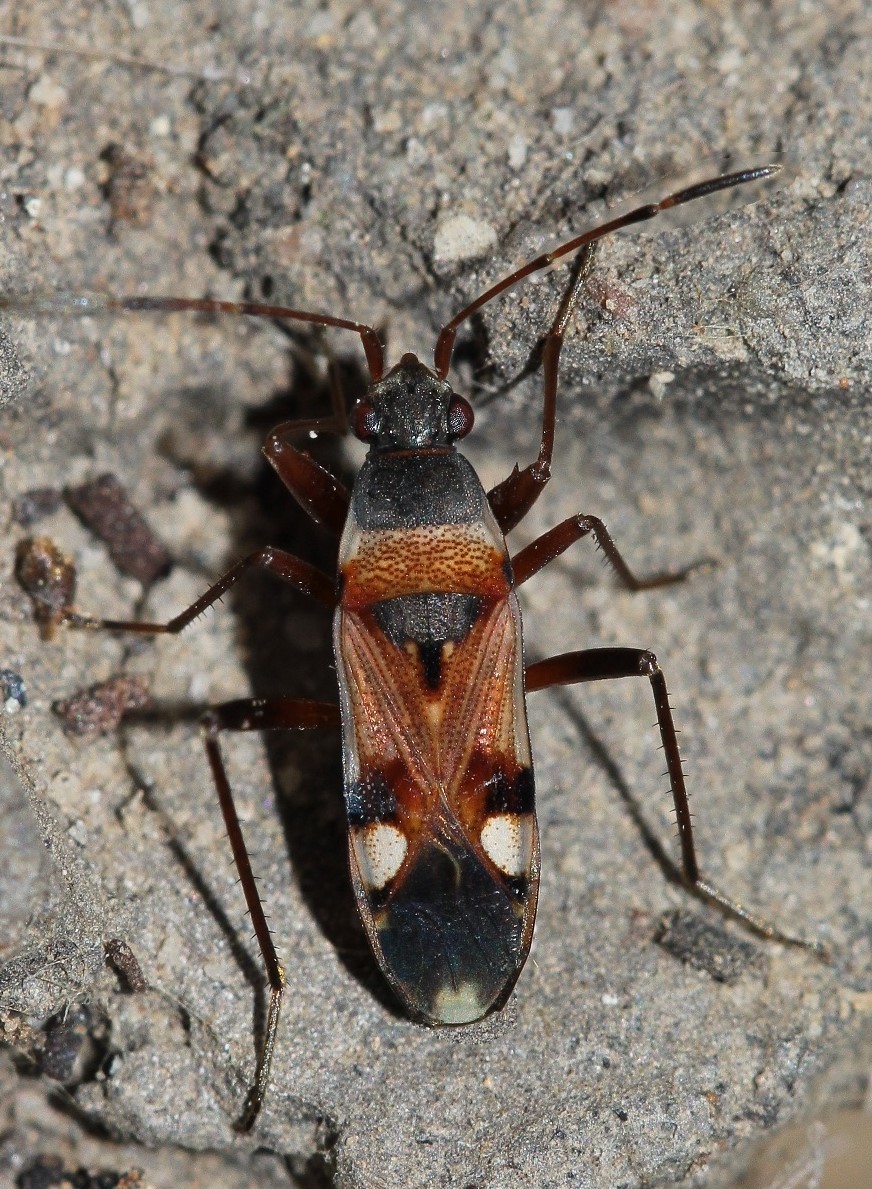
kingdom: Animalia
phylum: Arthropoda
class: Insecta
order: Hemiptera
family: Rhyparochromidae
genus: Beosus
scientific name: Beosus quadripunctatus
